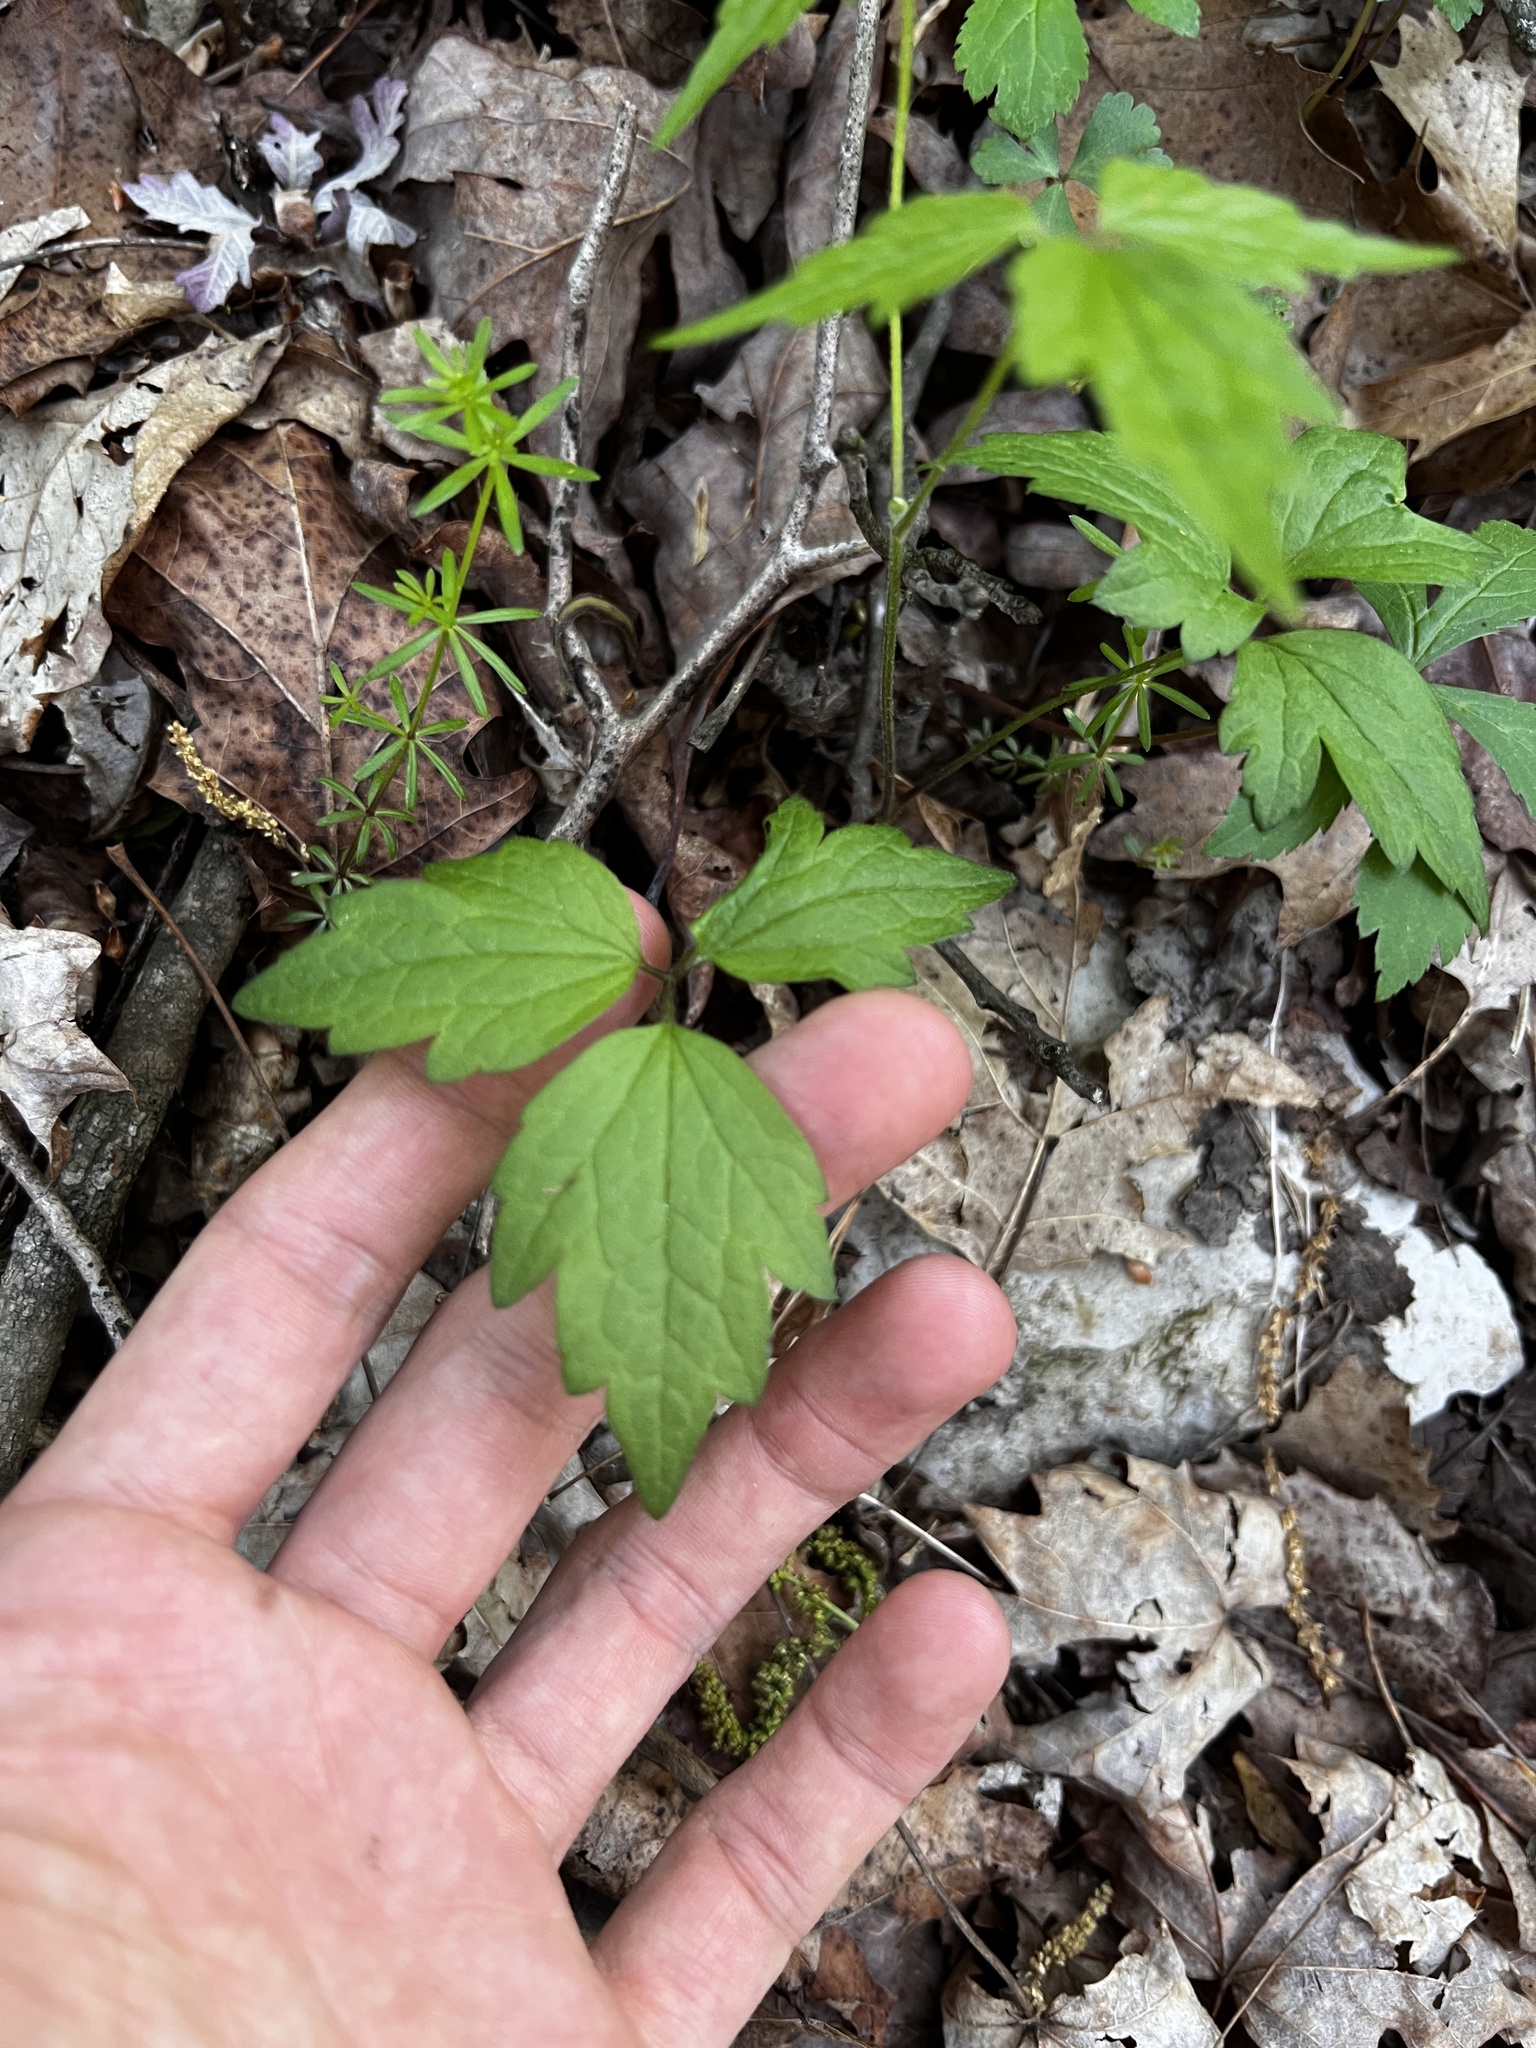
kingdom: Plantae
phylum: Tracheophyta
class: Magnoliopsida
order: Ranunculales
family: Ranunculaceae
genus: Clematis
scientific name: Clematis catesbyana
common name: Virgin's bower
